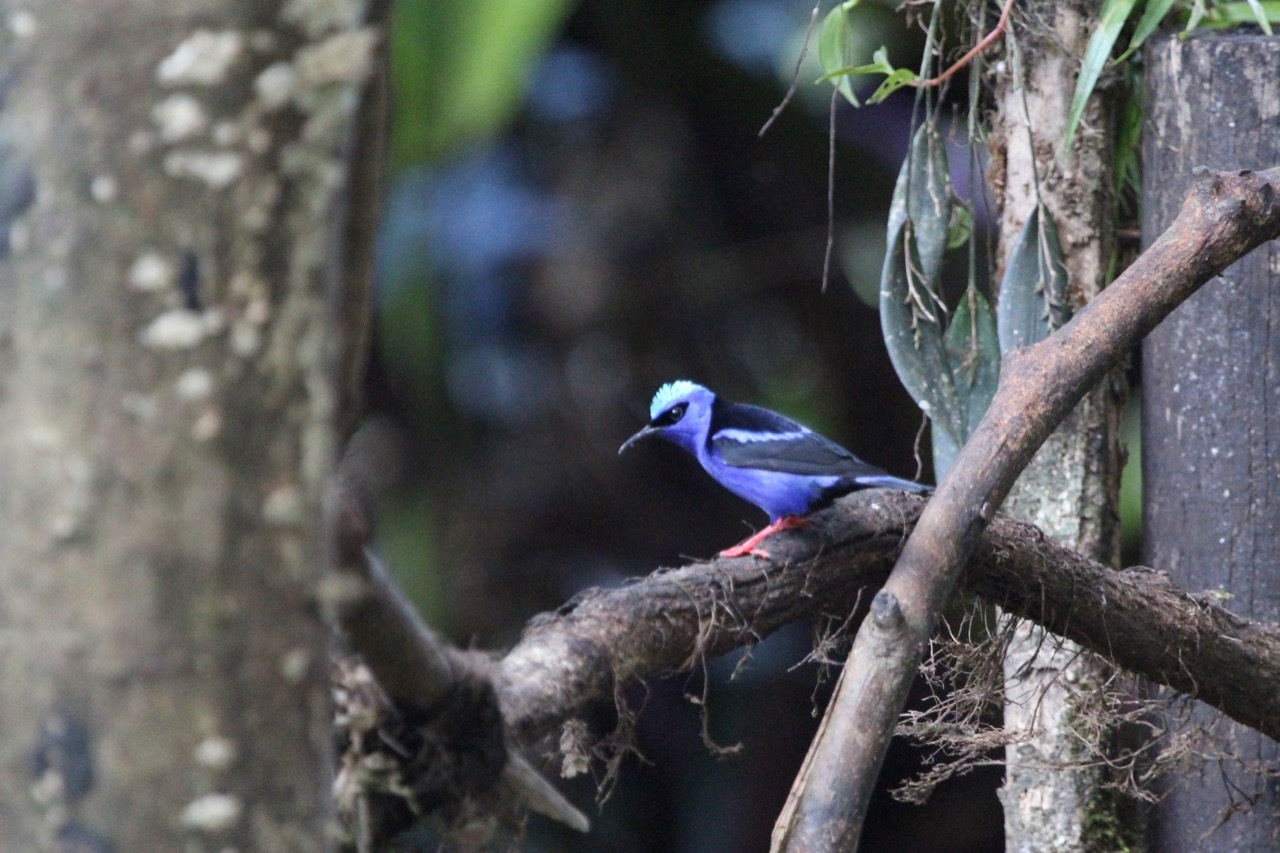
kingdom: Animalia
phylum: Chordata
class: Aves
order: Passeriformes
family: Thraupidae
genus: Cyanerpes
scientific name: Cyanerpes cyaneus
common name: Red-legged honeycreeper
